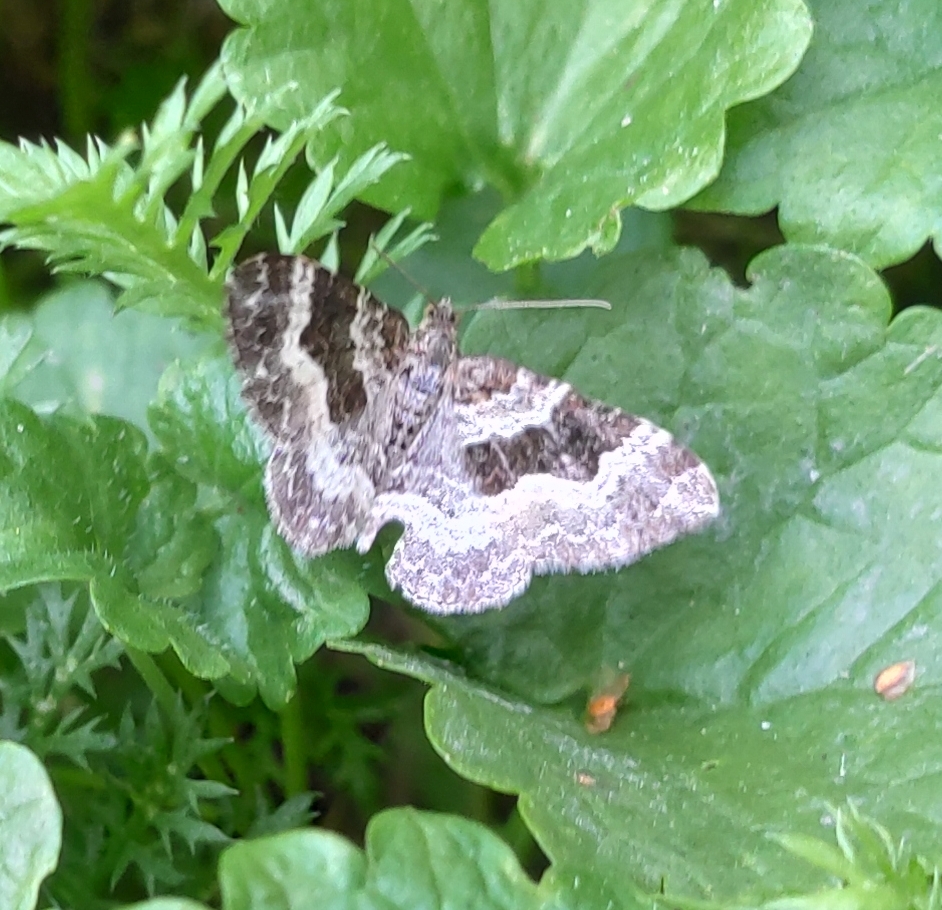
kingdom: Animalia
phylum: Arthropoda
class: Insecta
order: Lepidoptera
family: Geometridae
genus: Epirrhoe
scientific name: Epirrhoe alternata
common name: Common carpet
